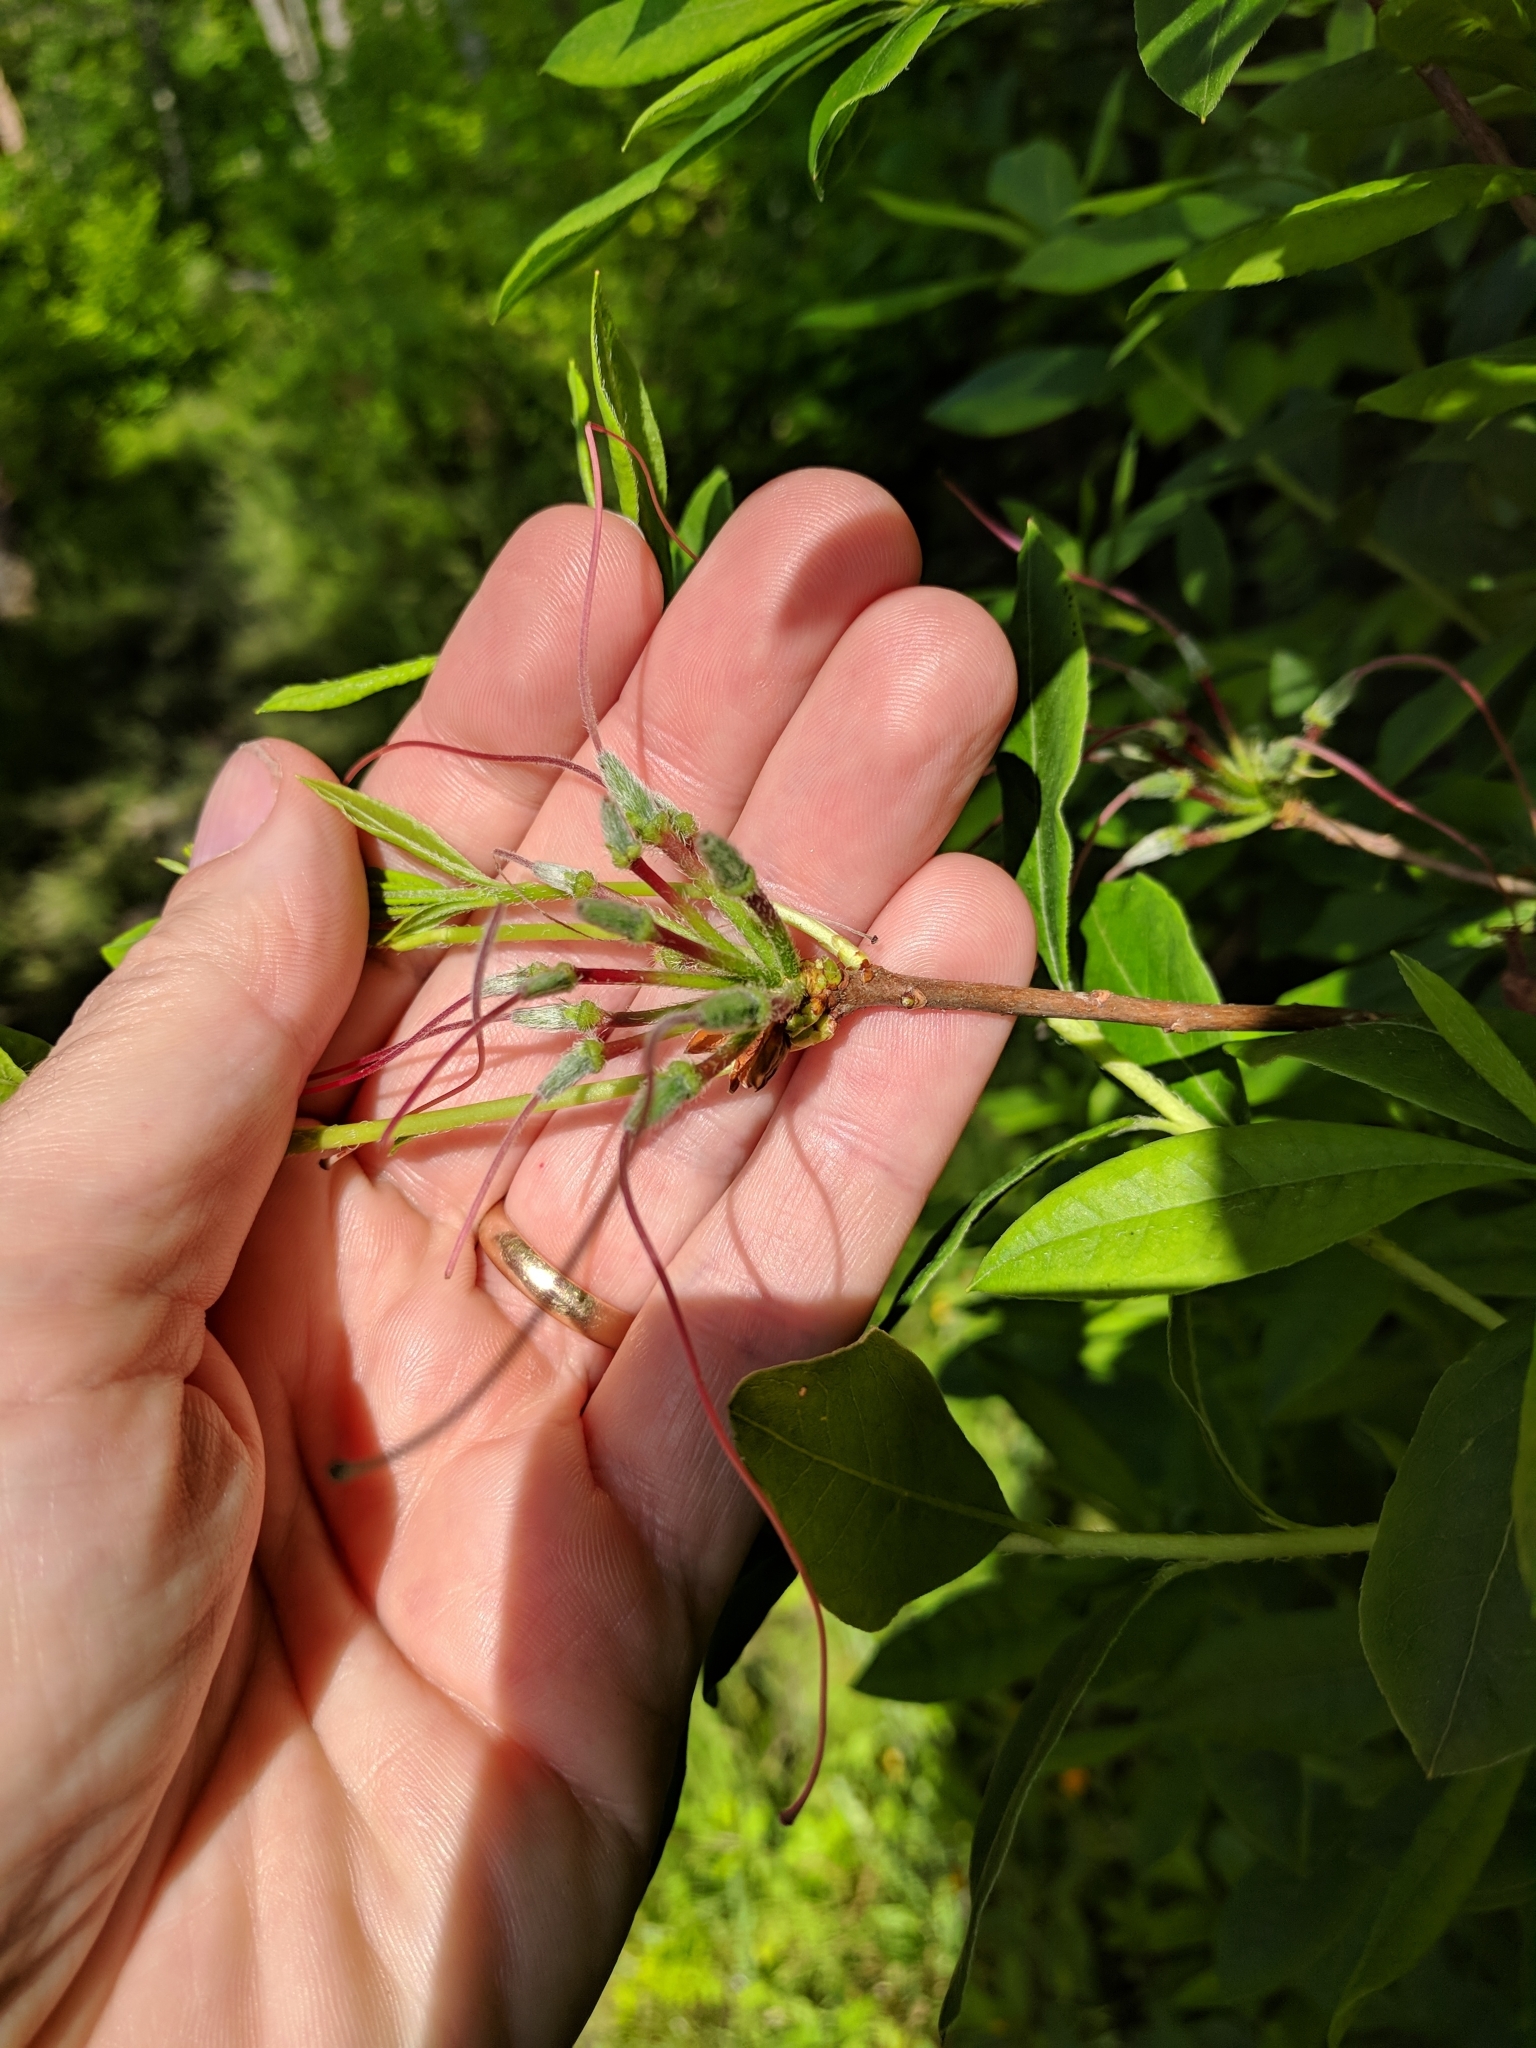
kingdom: Plantae
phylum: Tracheophyta
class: Magnoliopsida
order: Ericales
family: Ericaceae
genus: Rhododendron
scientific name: Rhododendron periclymenoides
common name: Election-pink
